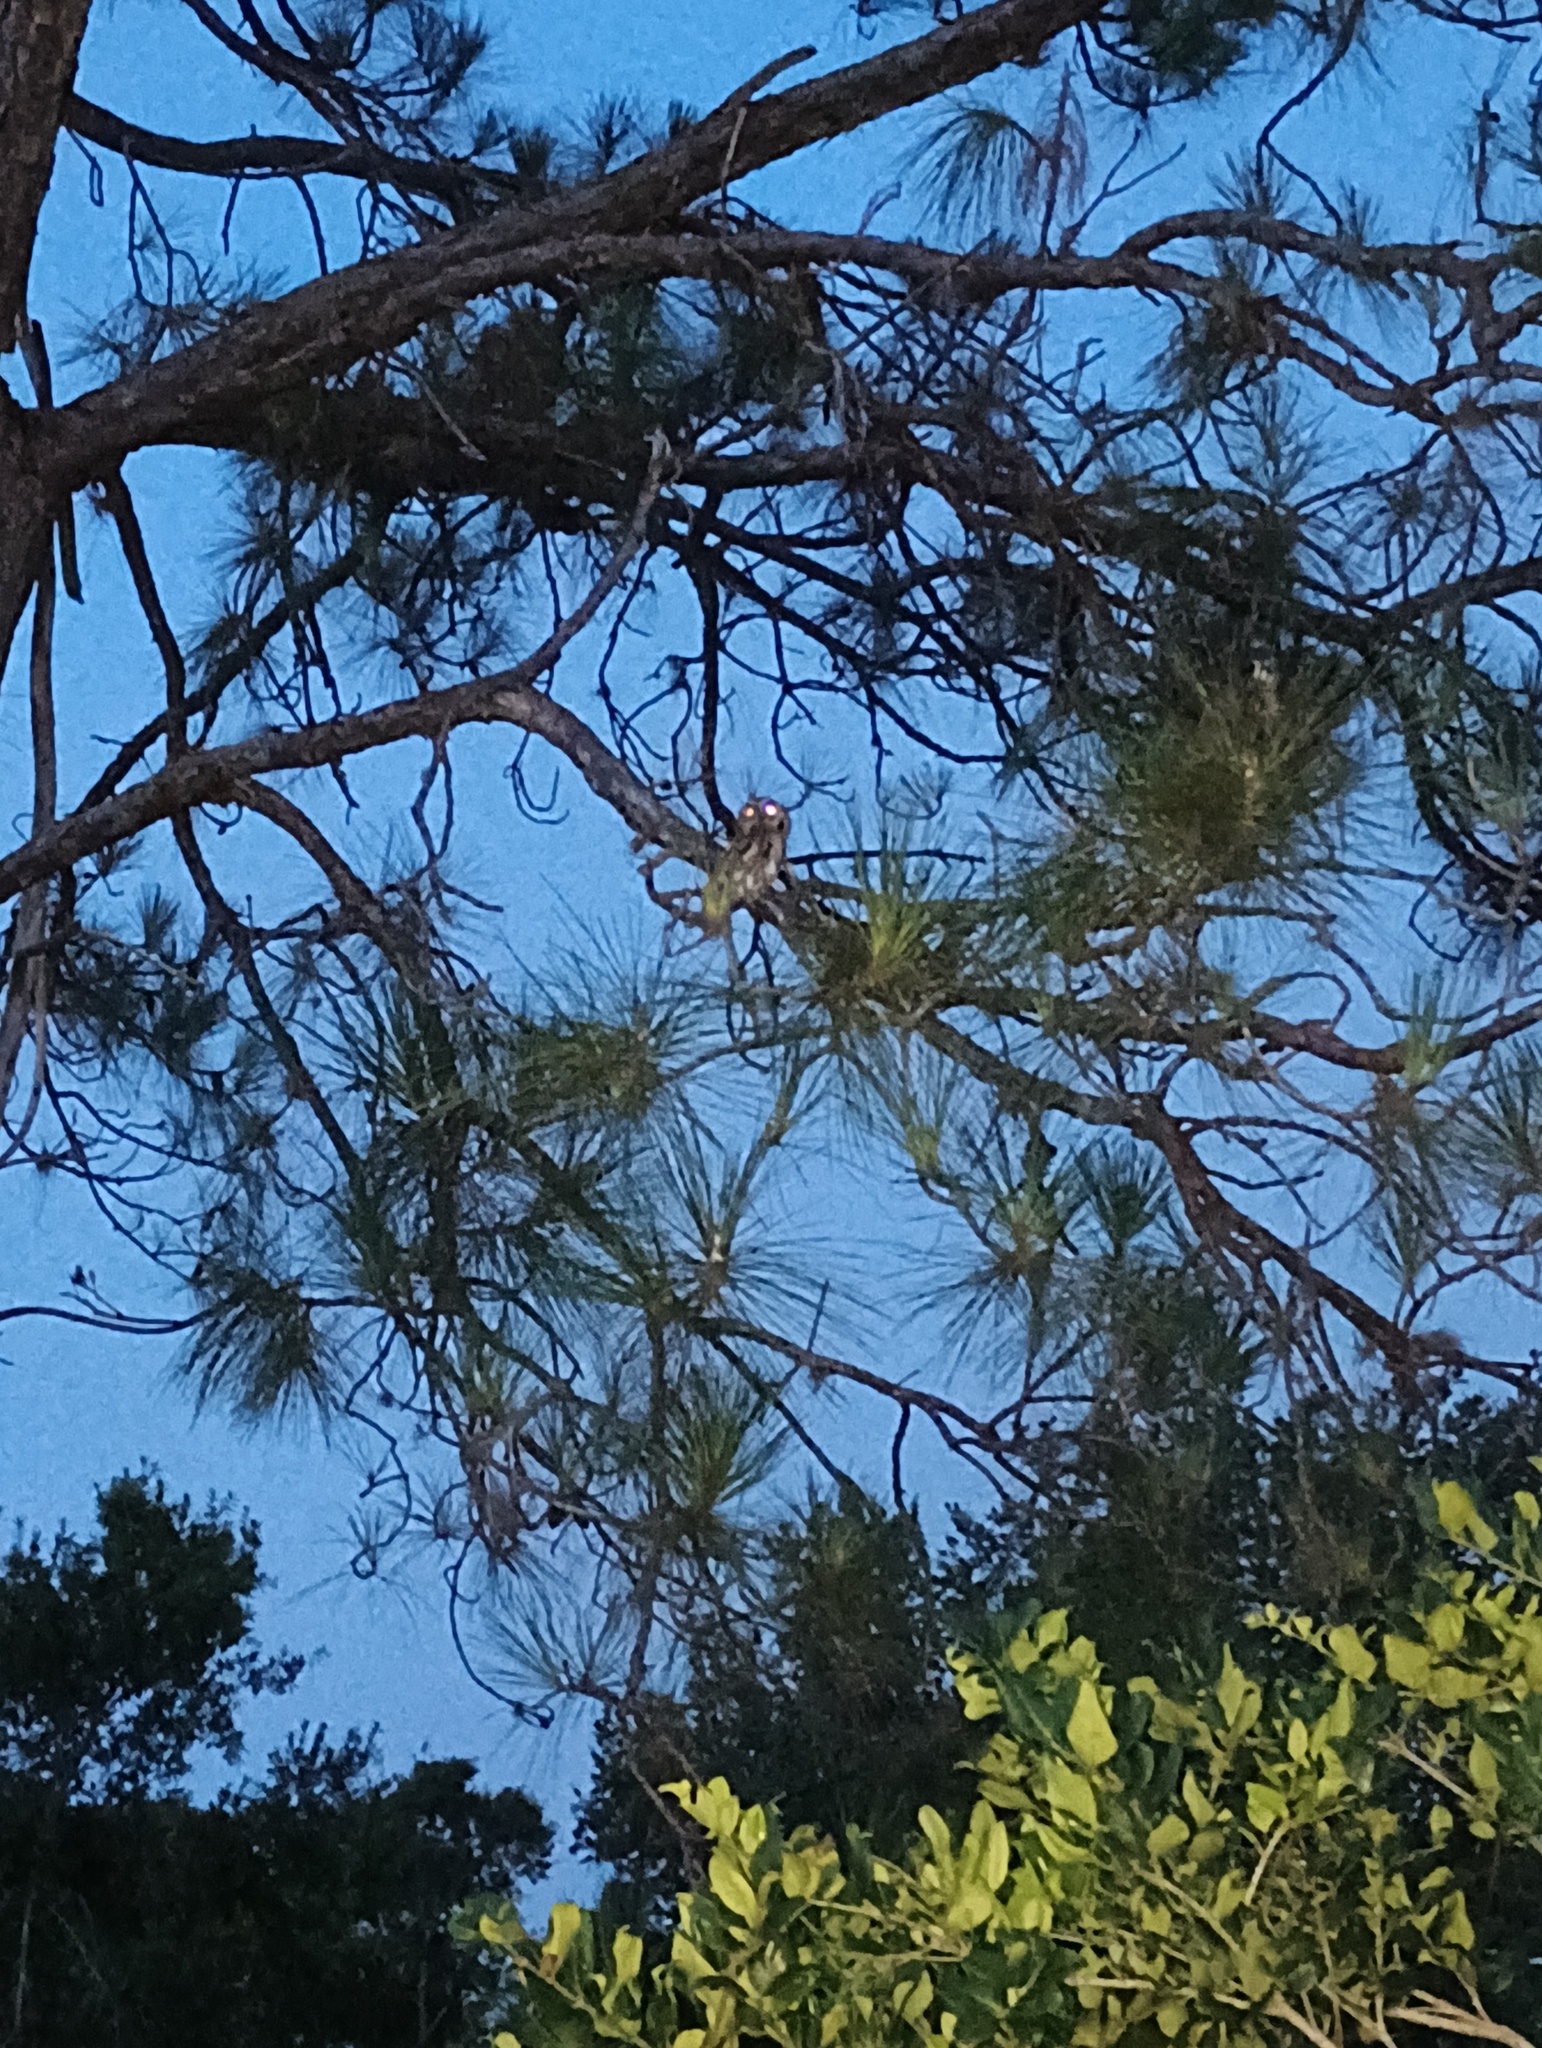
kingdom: Animalia
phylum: Chordata
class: Aves
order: Strigiformes
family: Strigidae
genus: Megascops
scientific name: Megascops asio
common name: Eastern screech-owl
